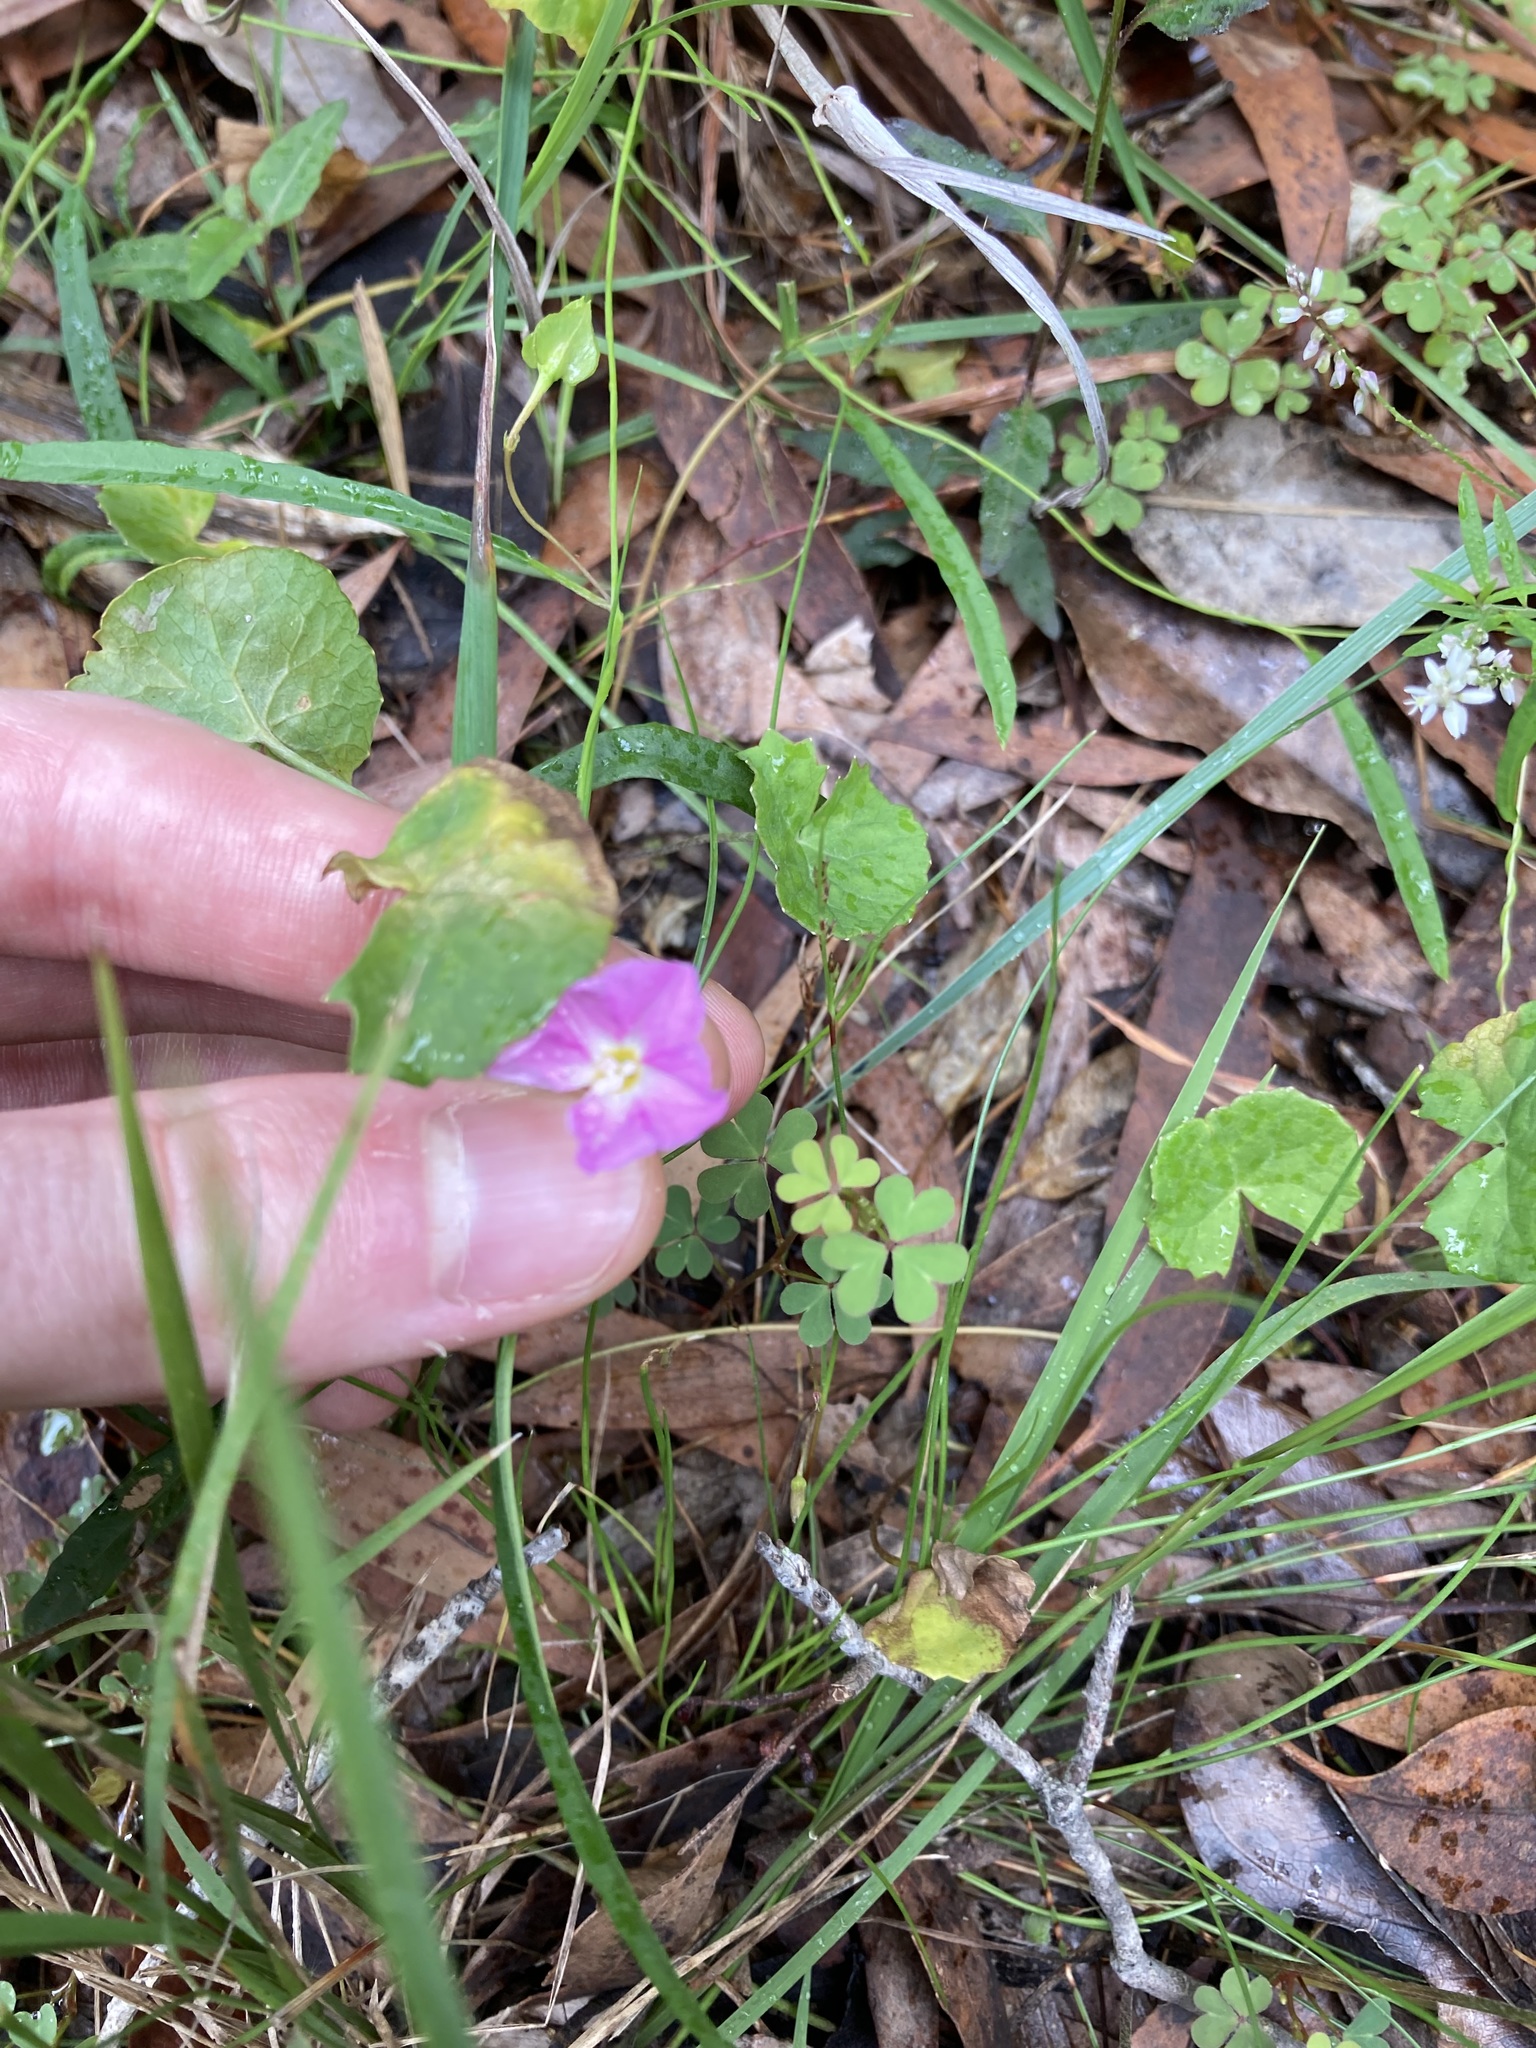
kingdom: Plantae
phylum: Tracheophyta
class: Magnoliopsida
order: Solanales
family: Convolvulaceae
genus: Polymeria
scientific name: Polymeria calycina
